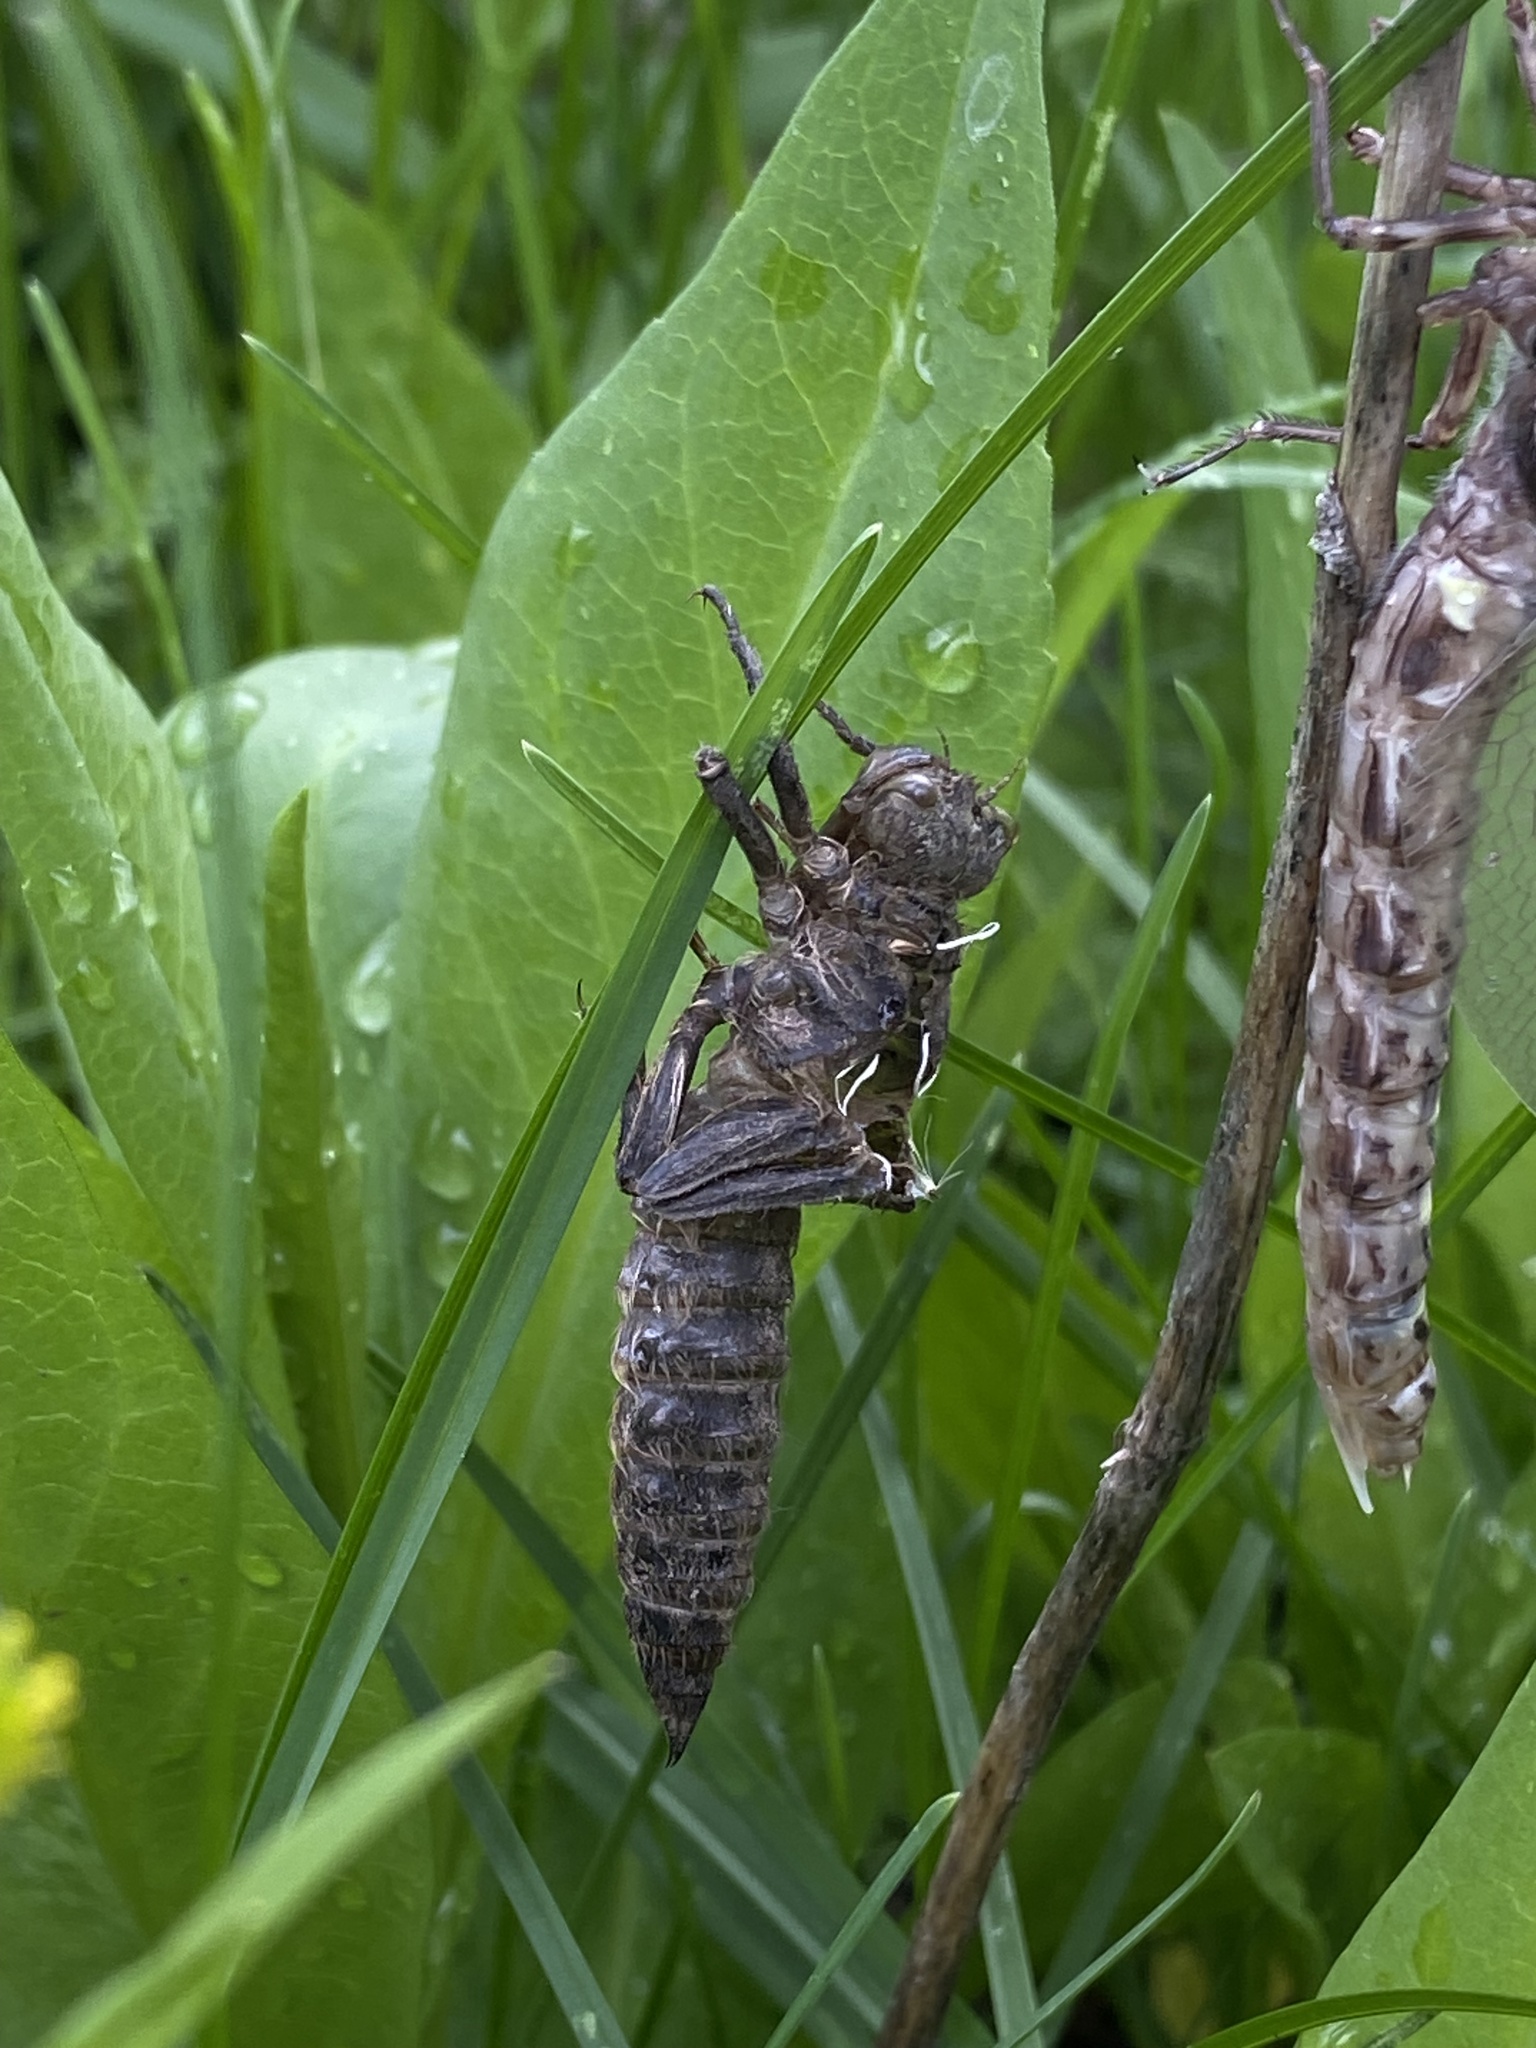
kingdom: Animalia
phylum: Arthropoda
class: Insecta
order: Odonata
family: Cordulegastridae
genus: Cordulegaster
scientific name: Cordulegaster dorsalis
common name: Pacific spiketail
